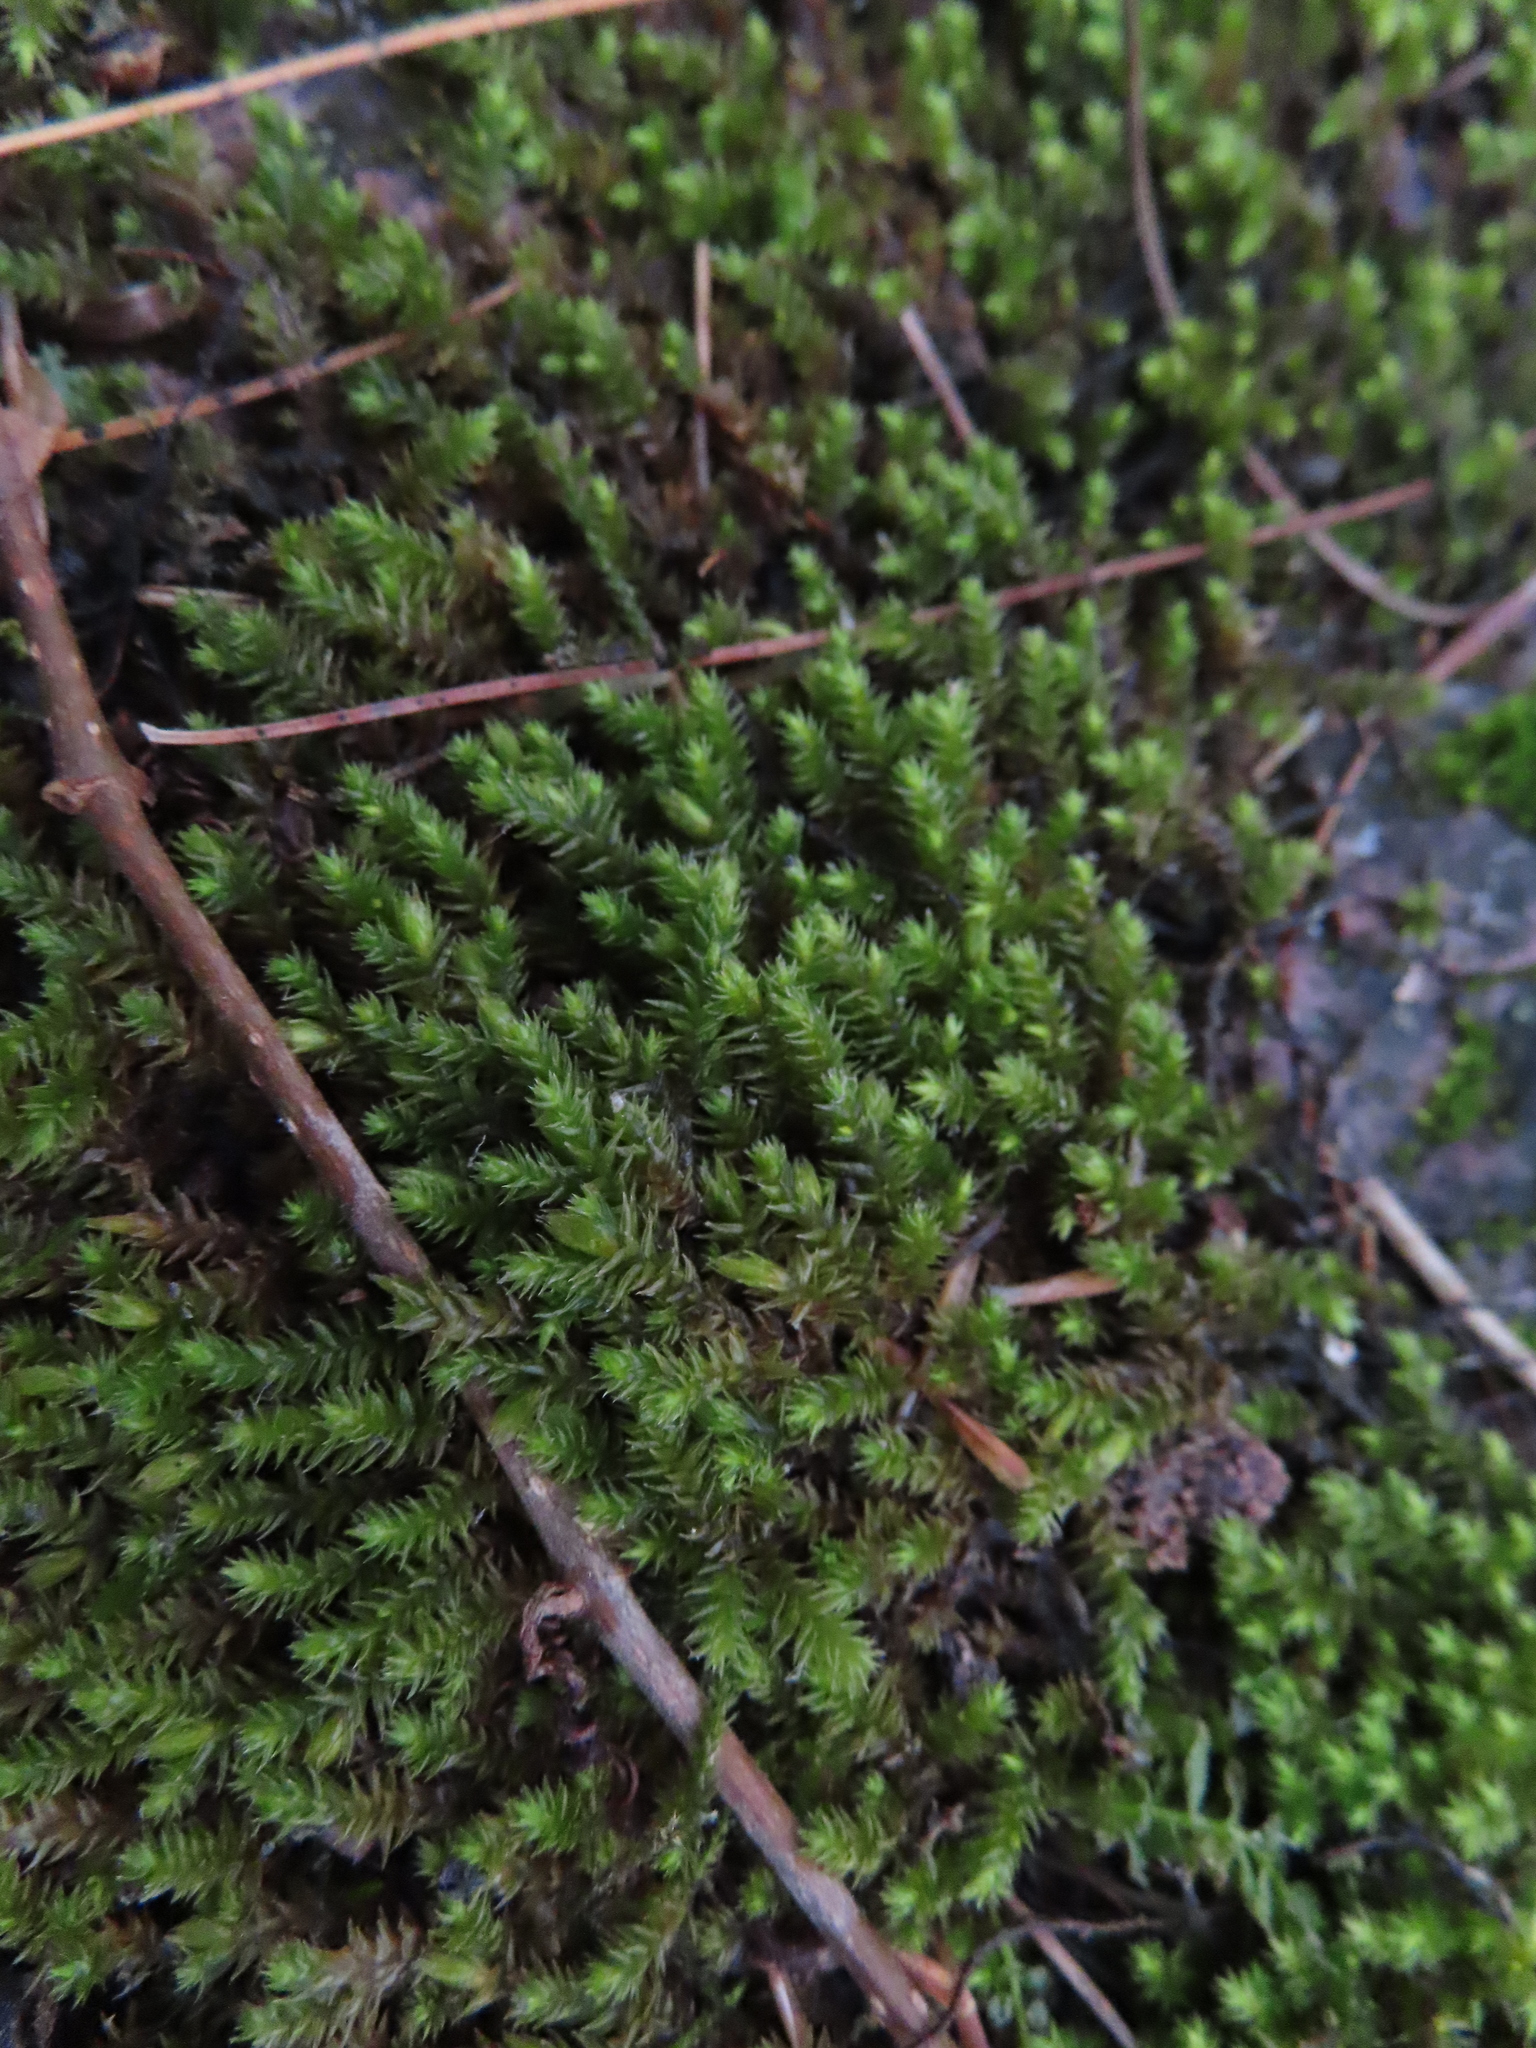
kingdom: Plantae
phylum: Bryophyta
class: Bryopsida
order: Hedwigiales
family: Hedwigiaceae
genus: Hedwigia
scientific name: Hedwigia ciliata
